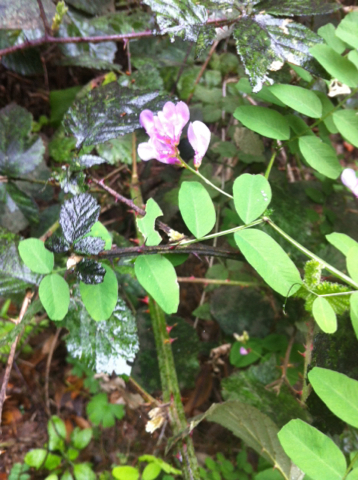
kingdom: Plantae
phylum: Tracheophyta
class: Magnoliopsida
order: Fabales
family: Fabaceae
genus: Lathyrus
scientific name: Lathyrus vestitus
